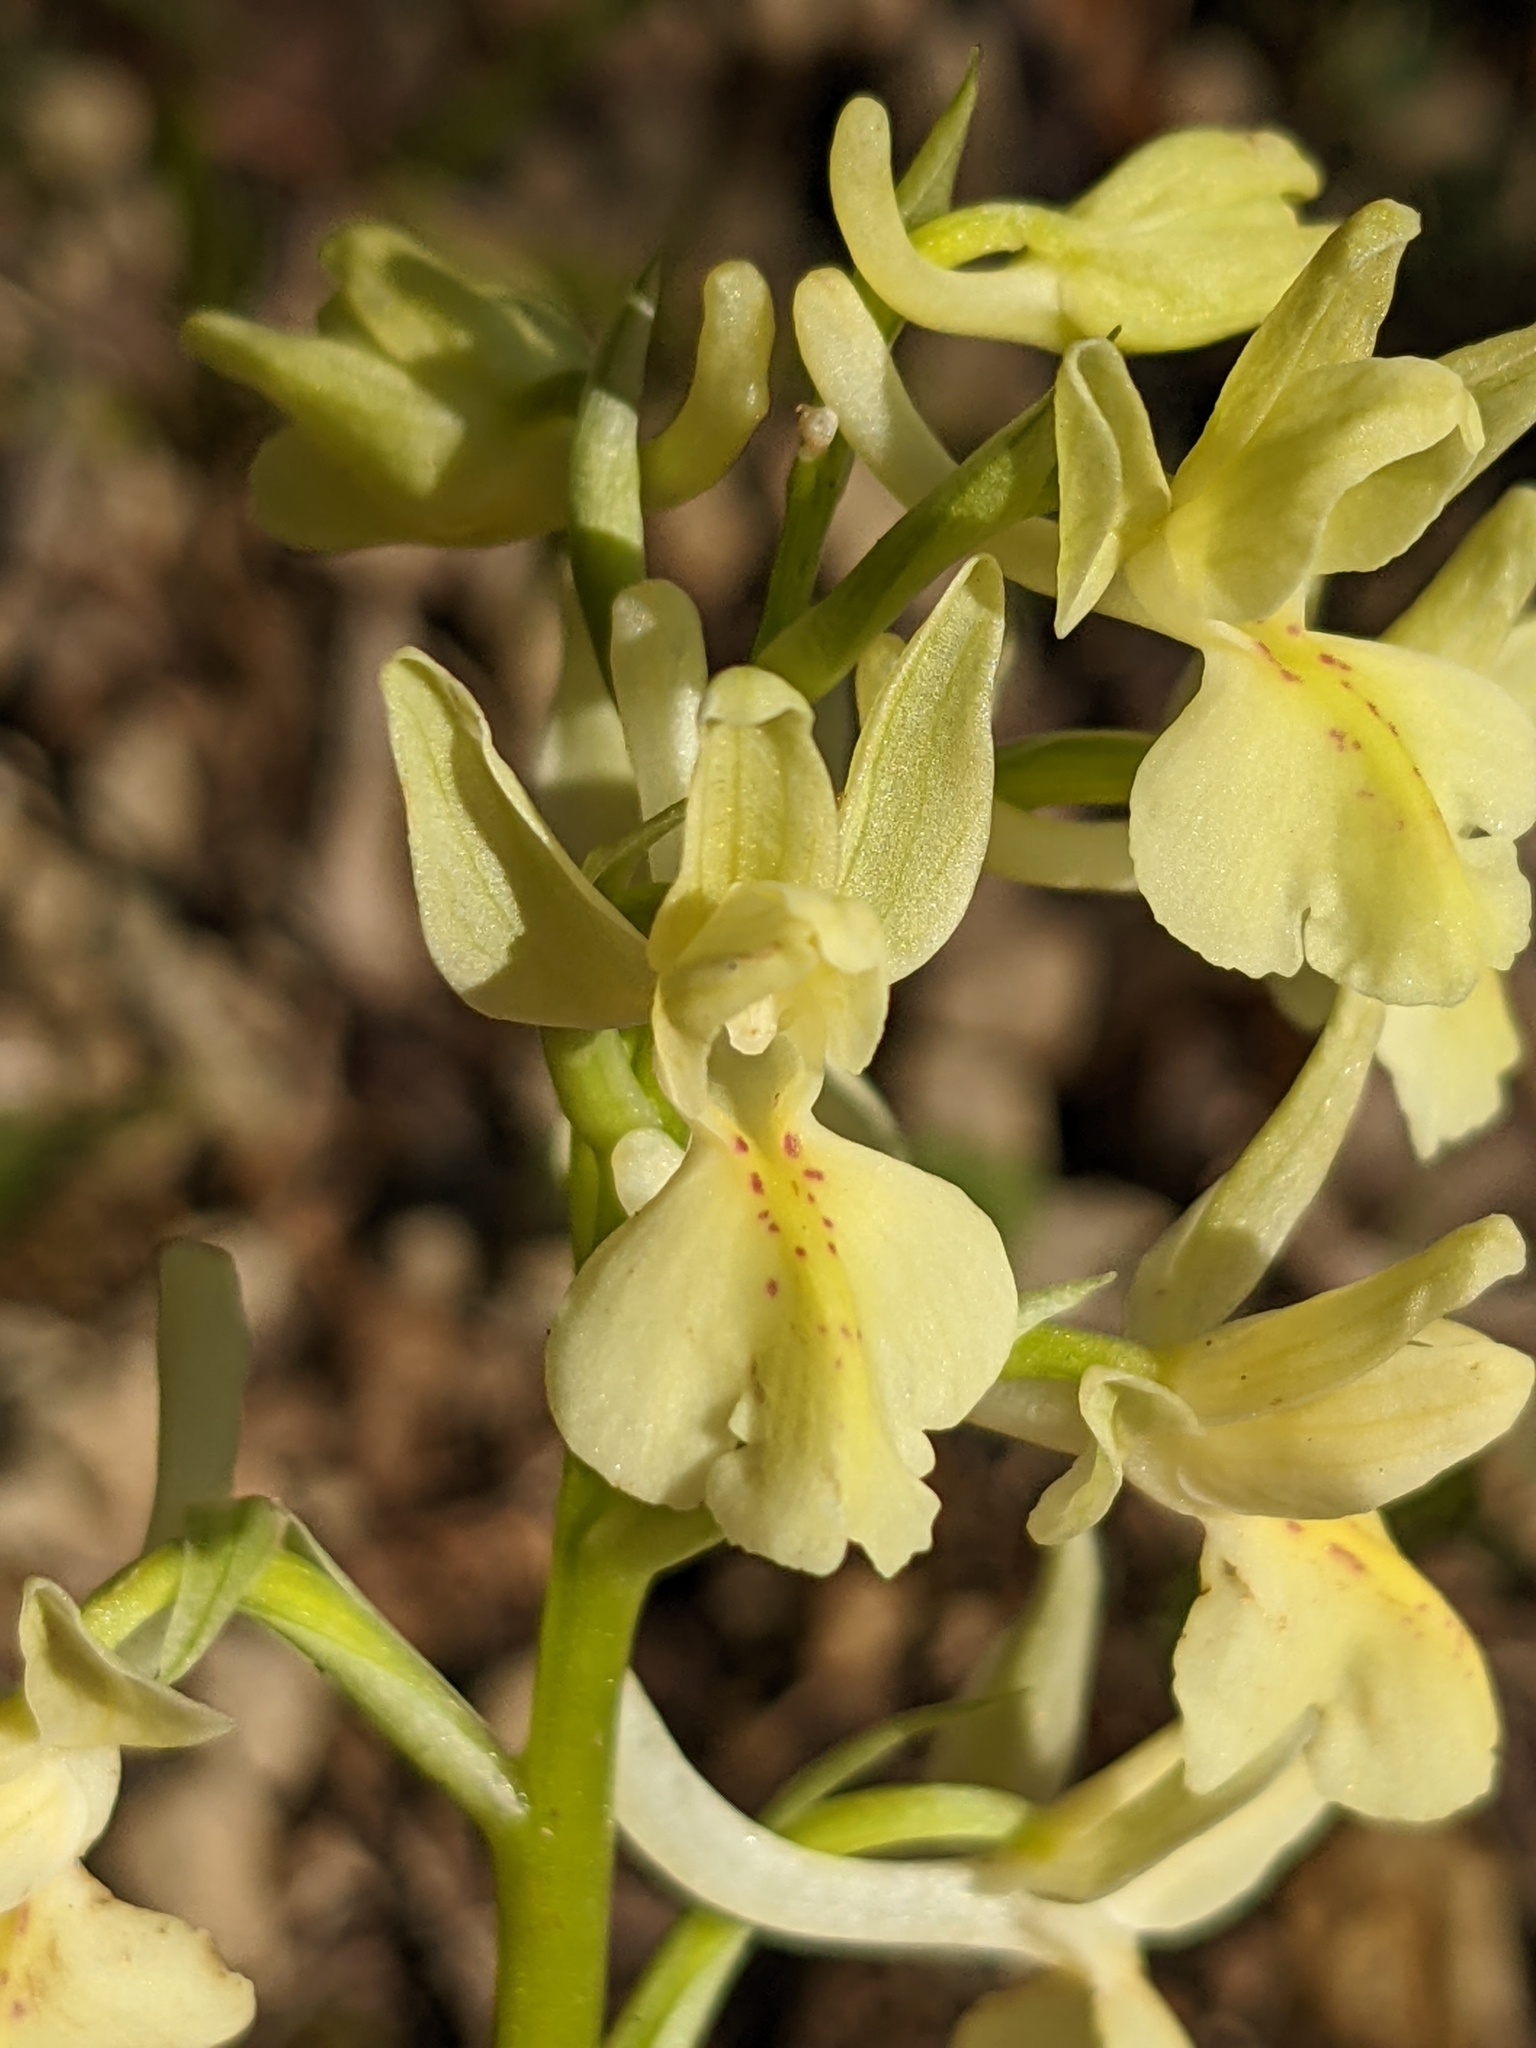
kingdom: Plantae
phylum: Tracheophyta
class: Liliopsida
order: Asparagales
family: Orchidaceae
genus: Orchis
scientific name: Orchis provincialis
